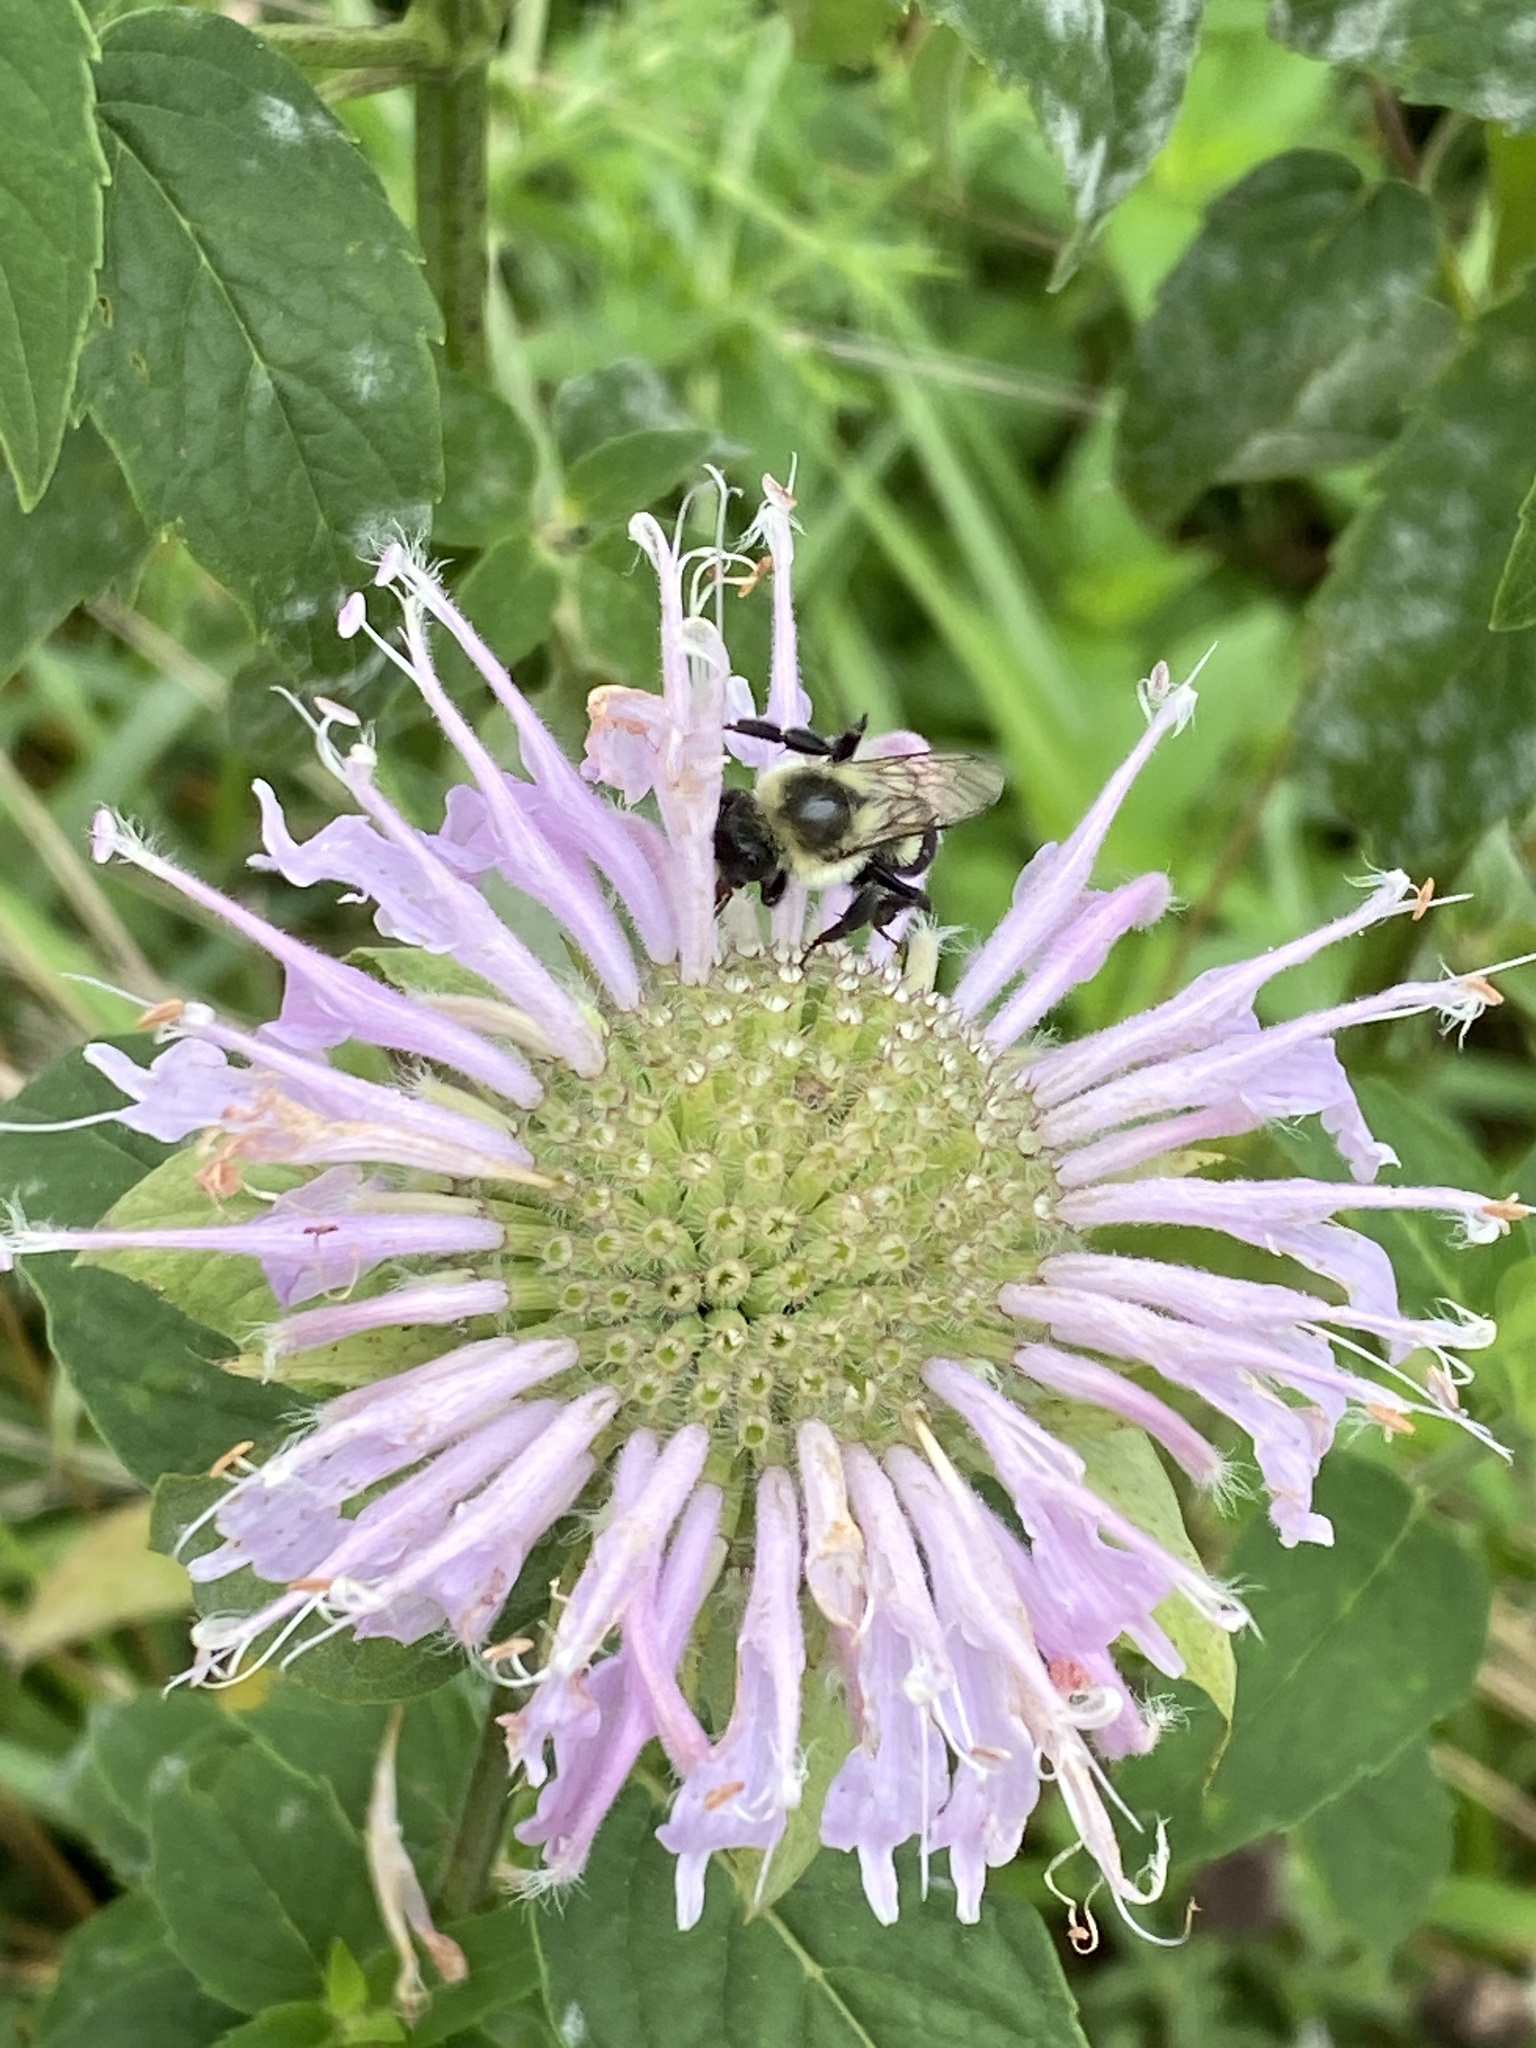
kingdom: Plantae
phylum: Tracheophyta
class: Magnoliopsida
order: Lamiales
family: Lamiaceae
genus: Monarda
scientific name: Monarda fistulosa
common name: Purple beebalm
